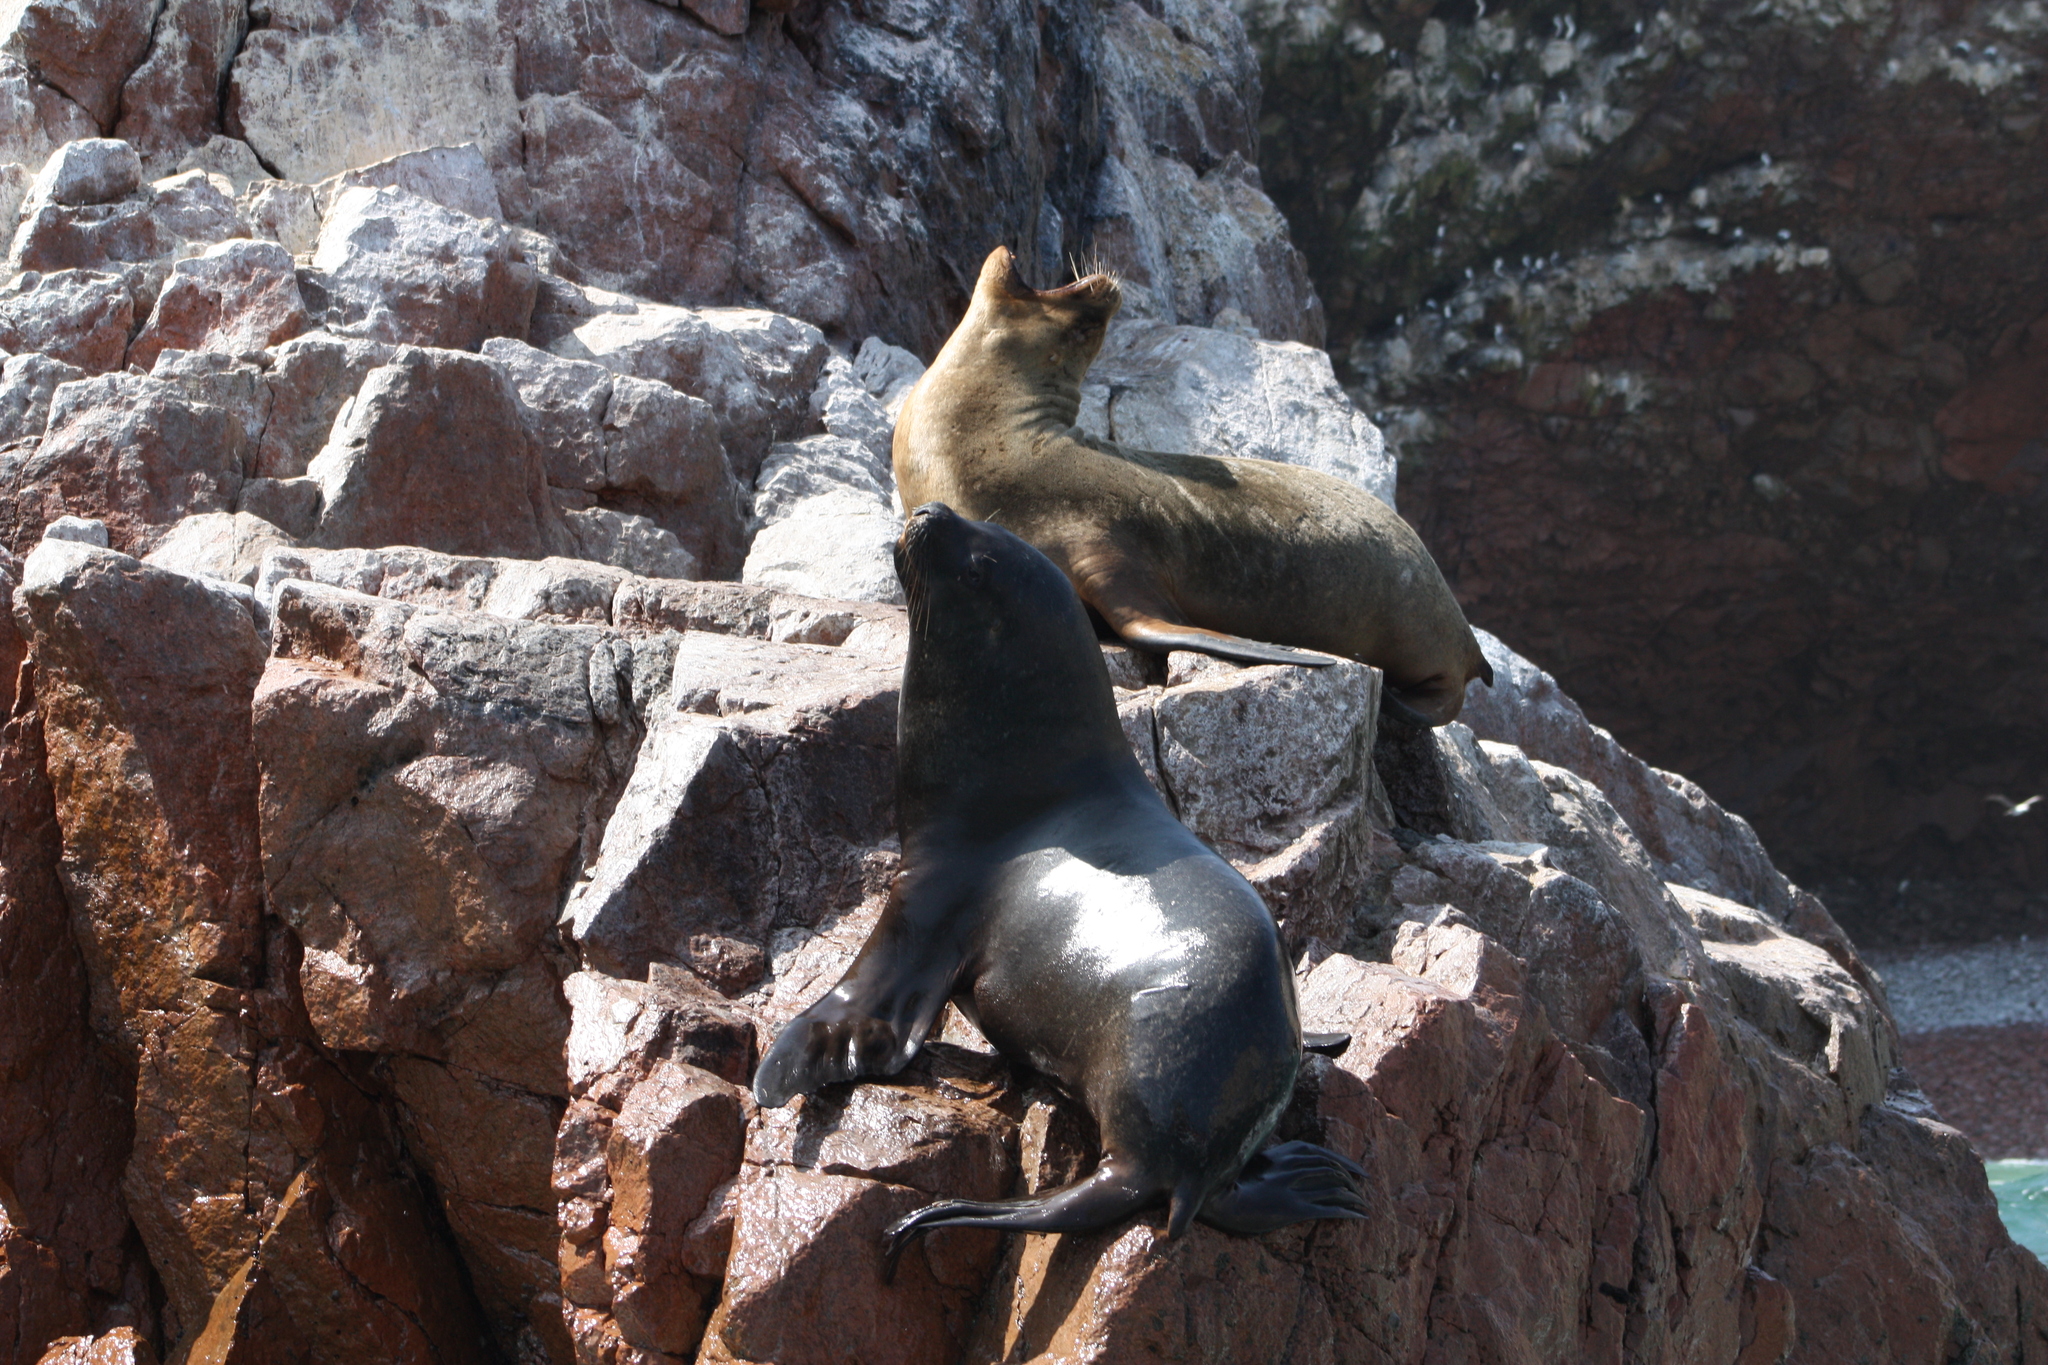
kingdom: Animalia
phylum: Chordata
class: Mammalia
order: Carnivora
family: Otariidae
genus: Otaria
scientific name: Otaria byronia
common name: South american sea lion
